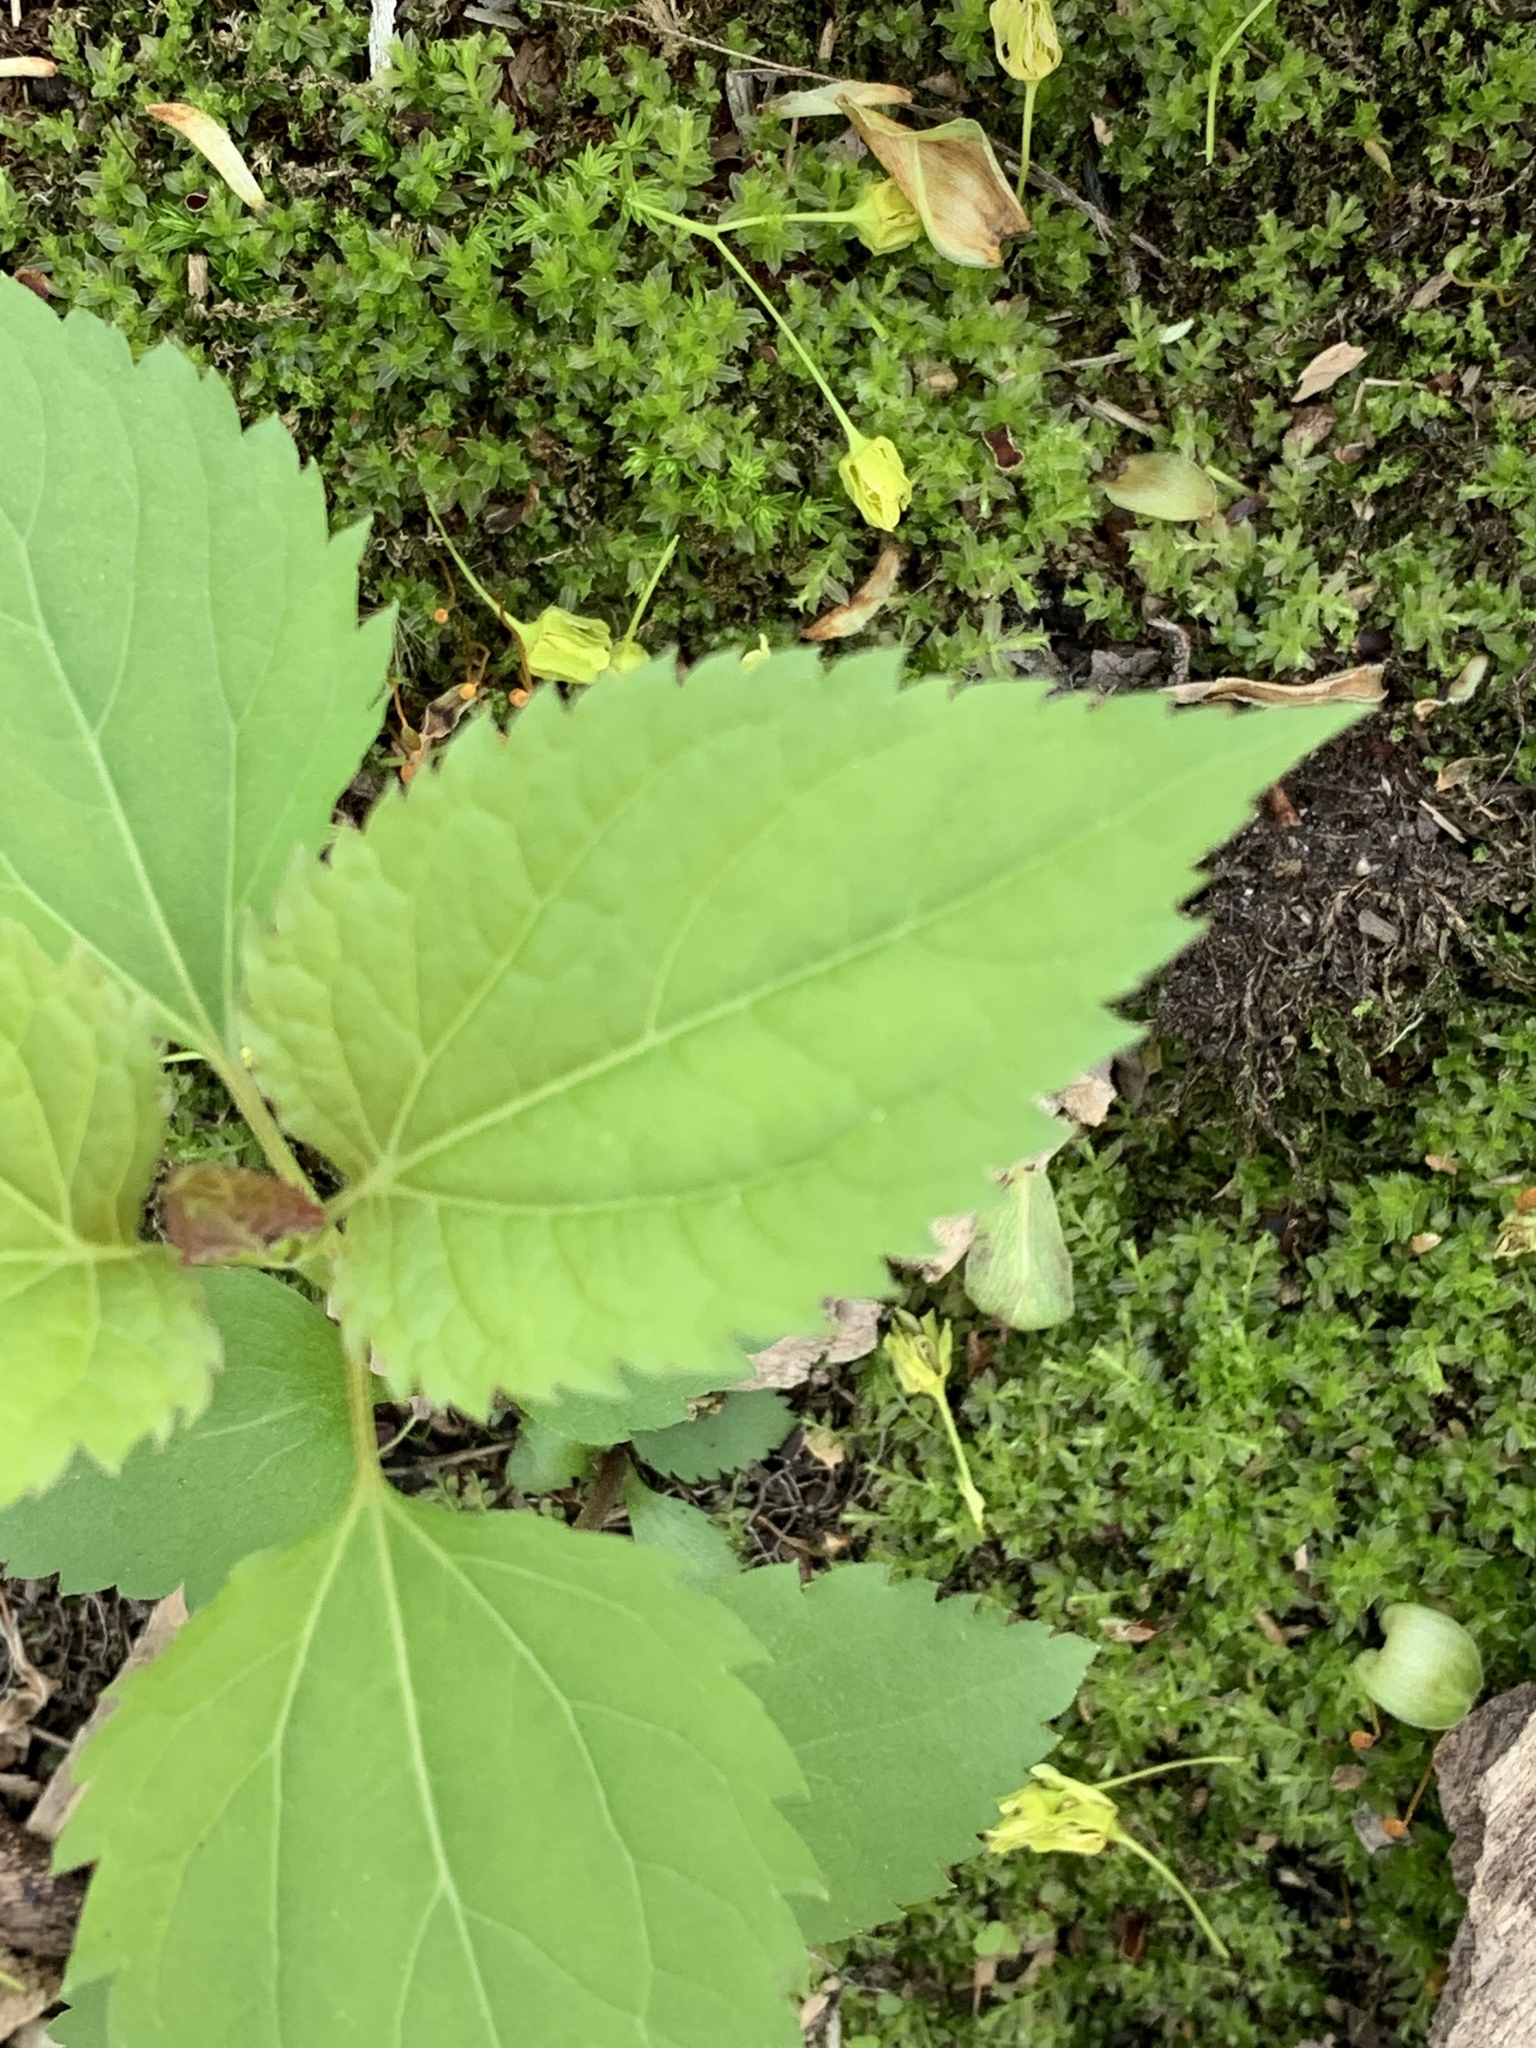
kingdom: Plantae
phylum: Tracheophyta
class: Magnoliopsida
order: Asterales
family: Asteraceae
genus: Ageratina
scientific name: Ageratina altissima
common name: White snakeroot
